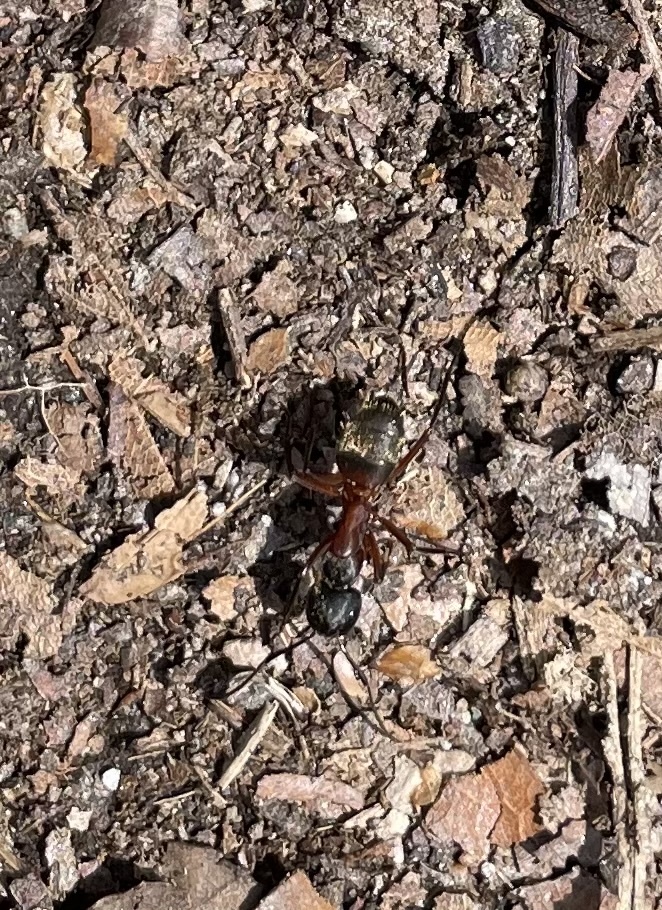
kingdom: Animalia
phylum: Arthropoda
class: Insecta
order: Hymenoptera
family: Formicidae
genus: Camponotus
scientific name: Camponotus chromaiodes
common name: Red carpenter ant
